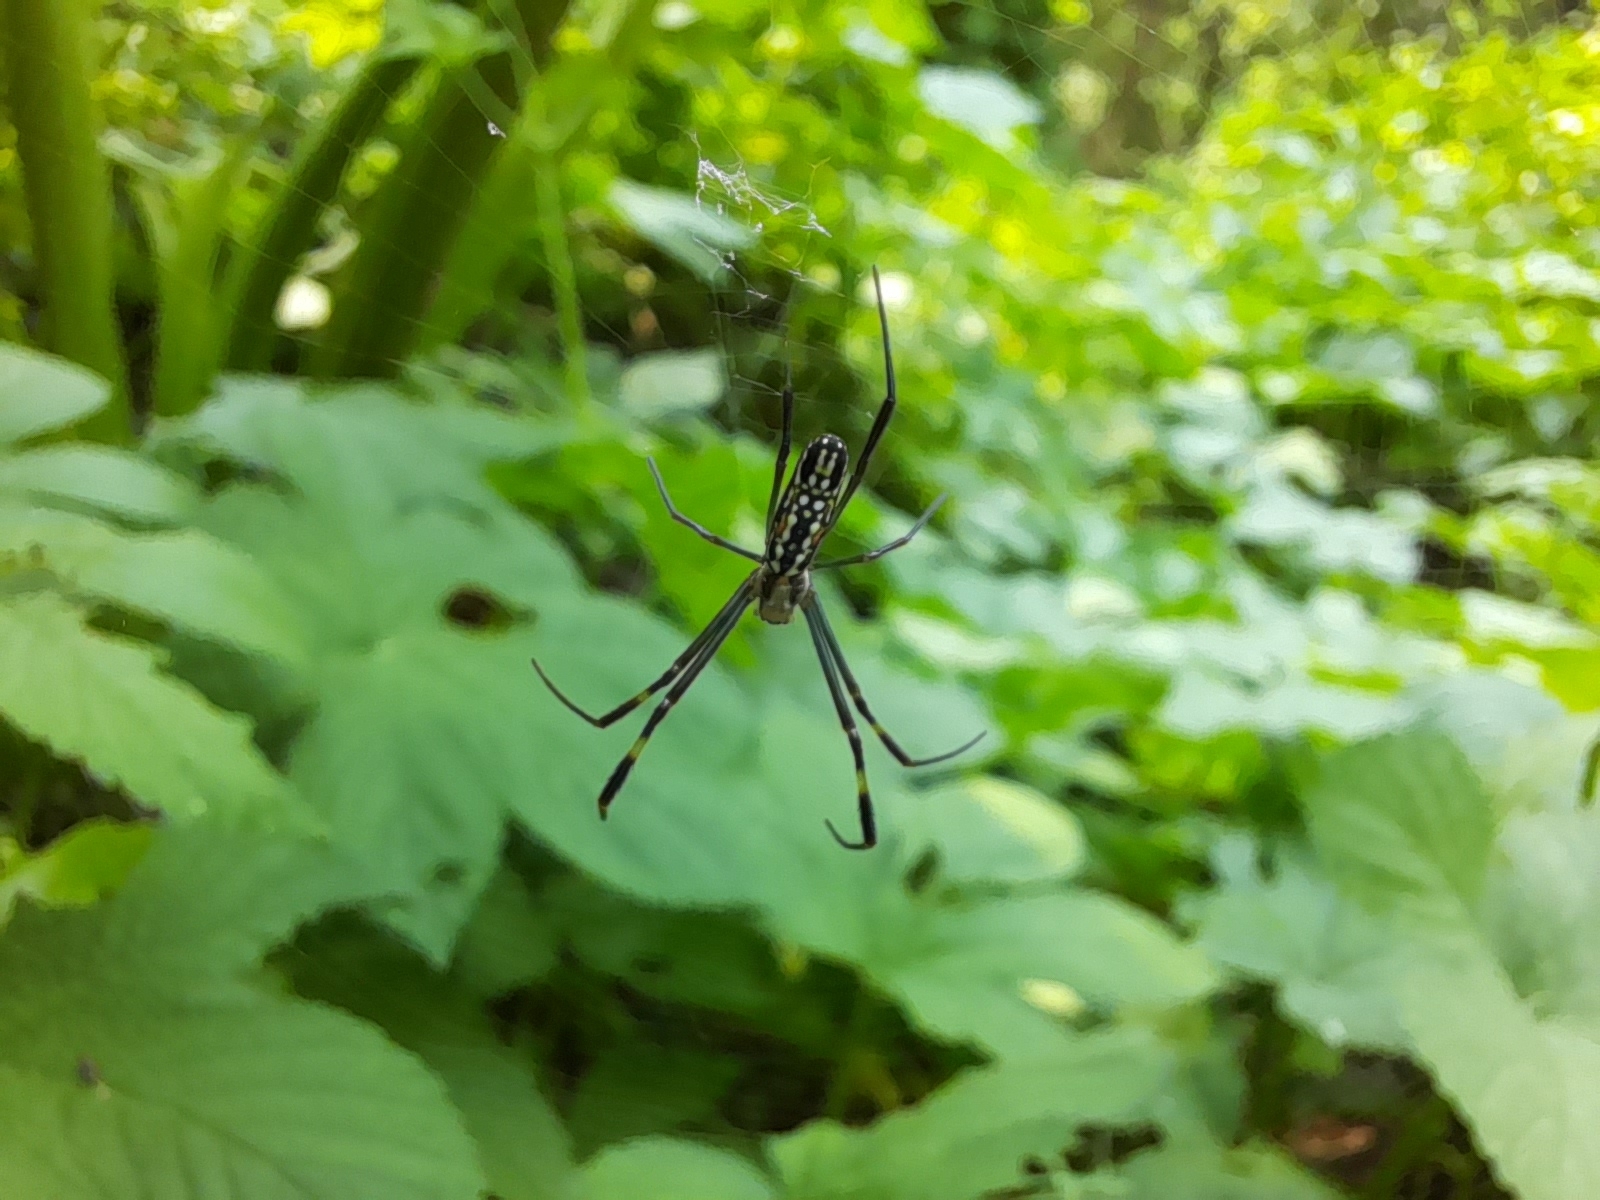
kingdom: Animalia
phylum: Arthropoda
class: Arachnida
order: Araneae
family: Araneidae
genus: Trichonephila
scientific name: Trichonephila clavipes
